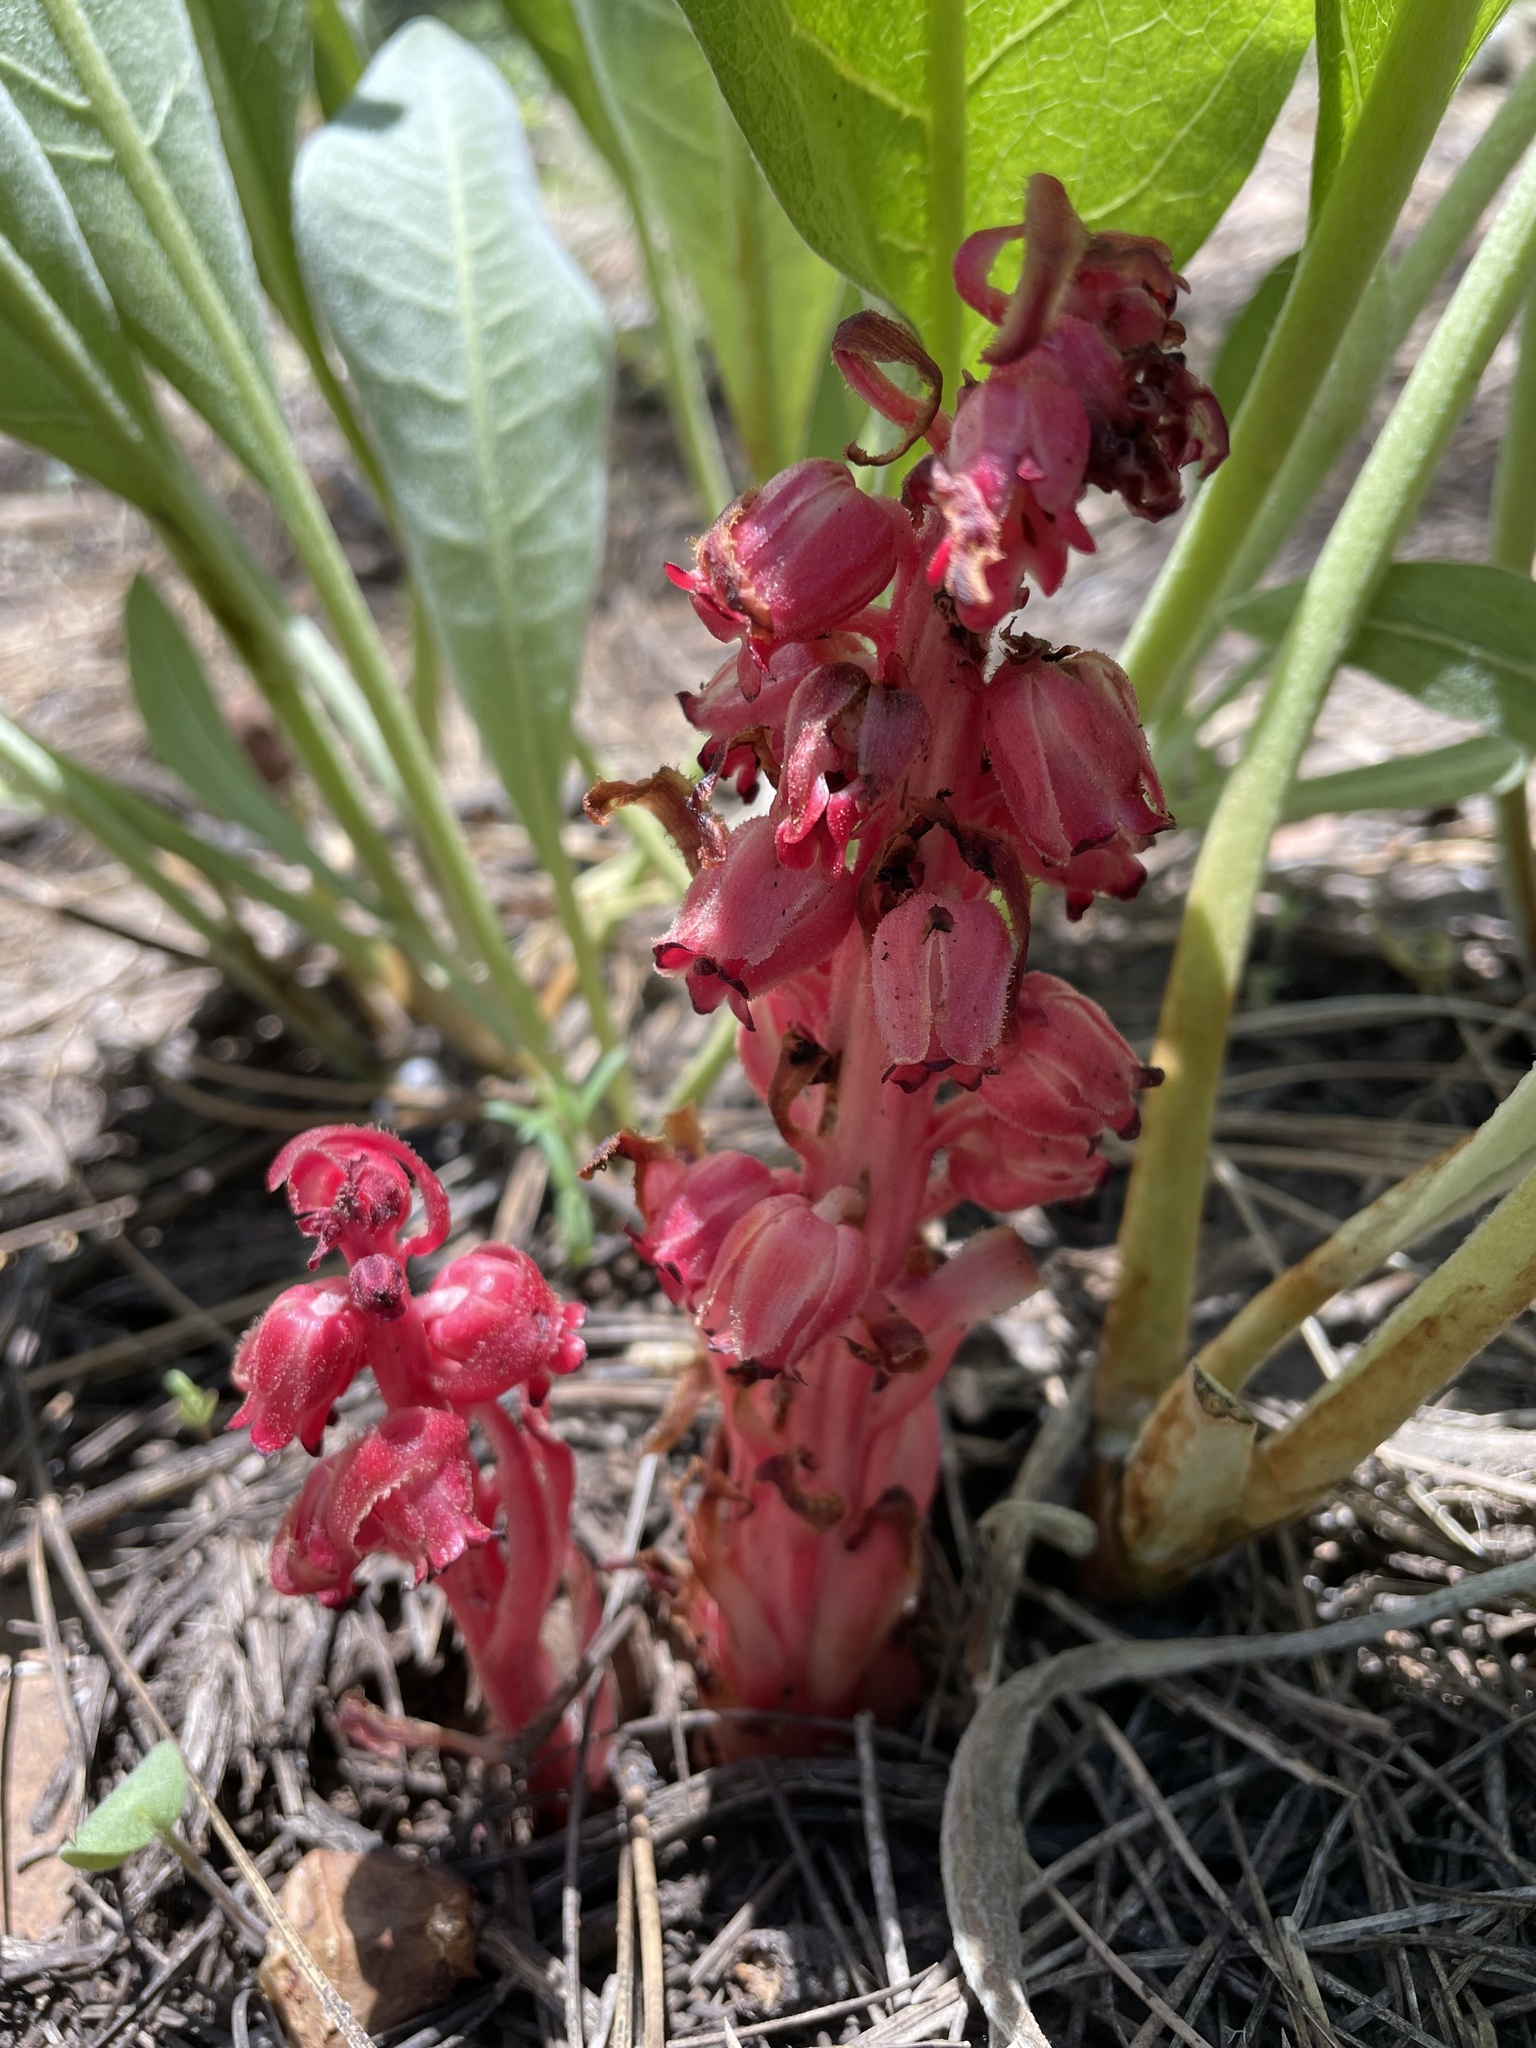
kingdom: Plantae
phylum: Tracheophyta
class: Magnoliopsida
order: Ericales
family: Ericaceae
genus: Sarcodes
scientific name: Sarcodes sanguinea
